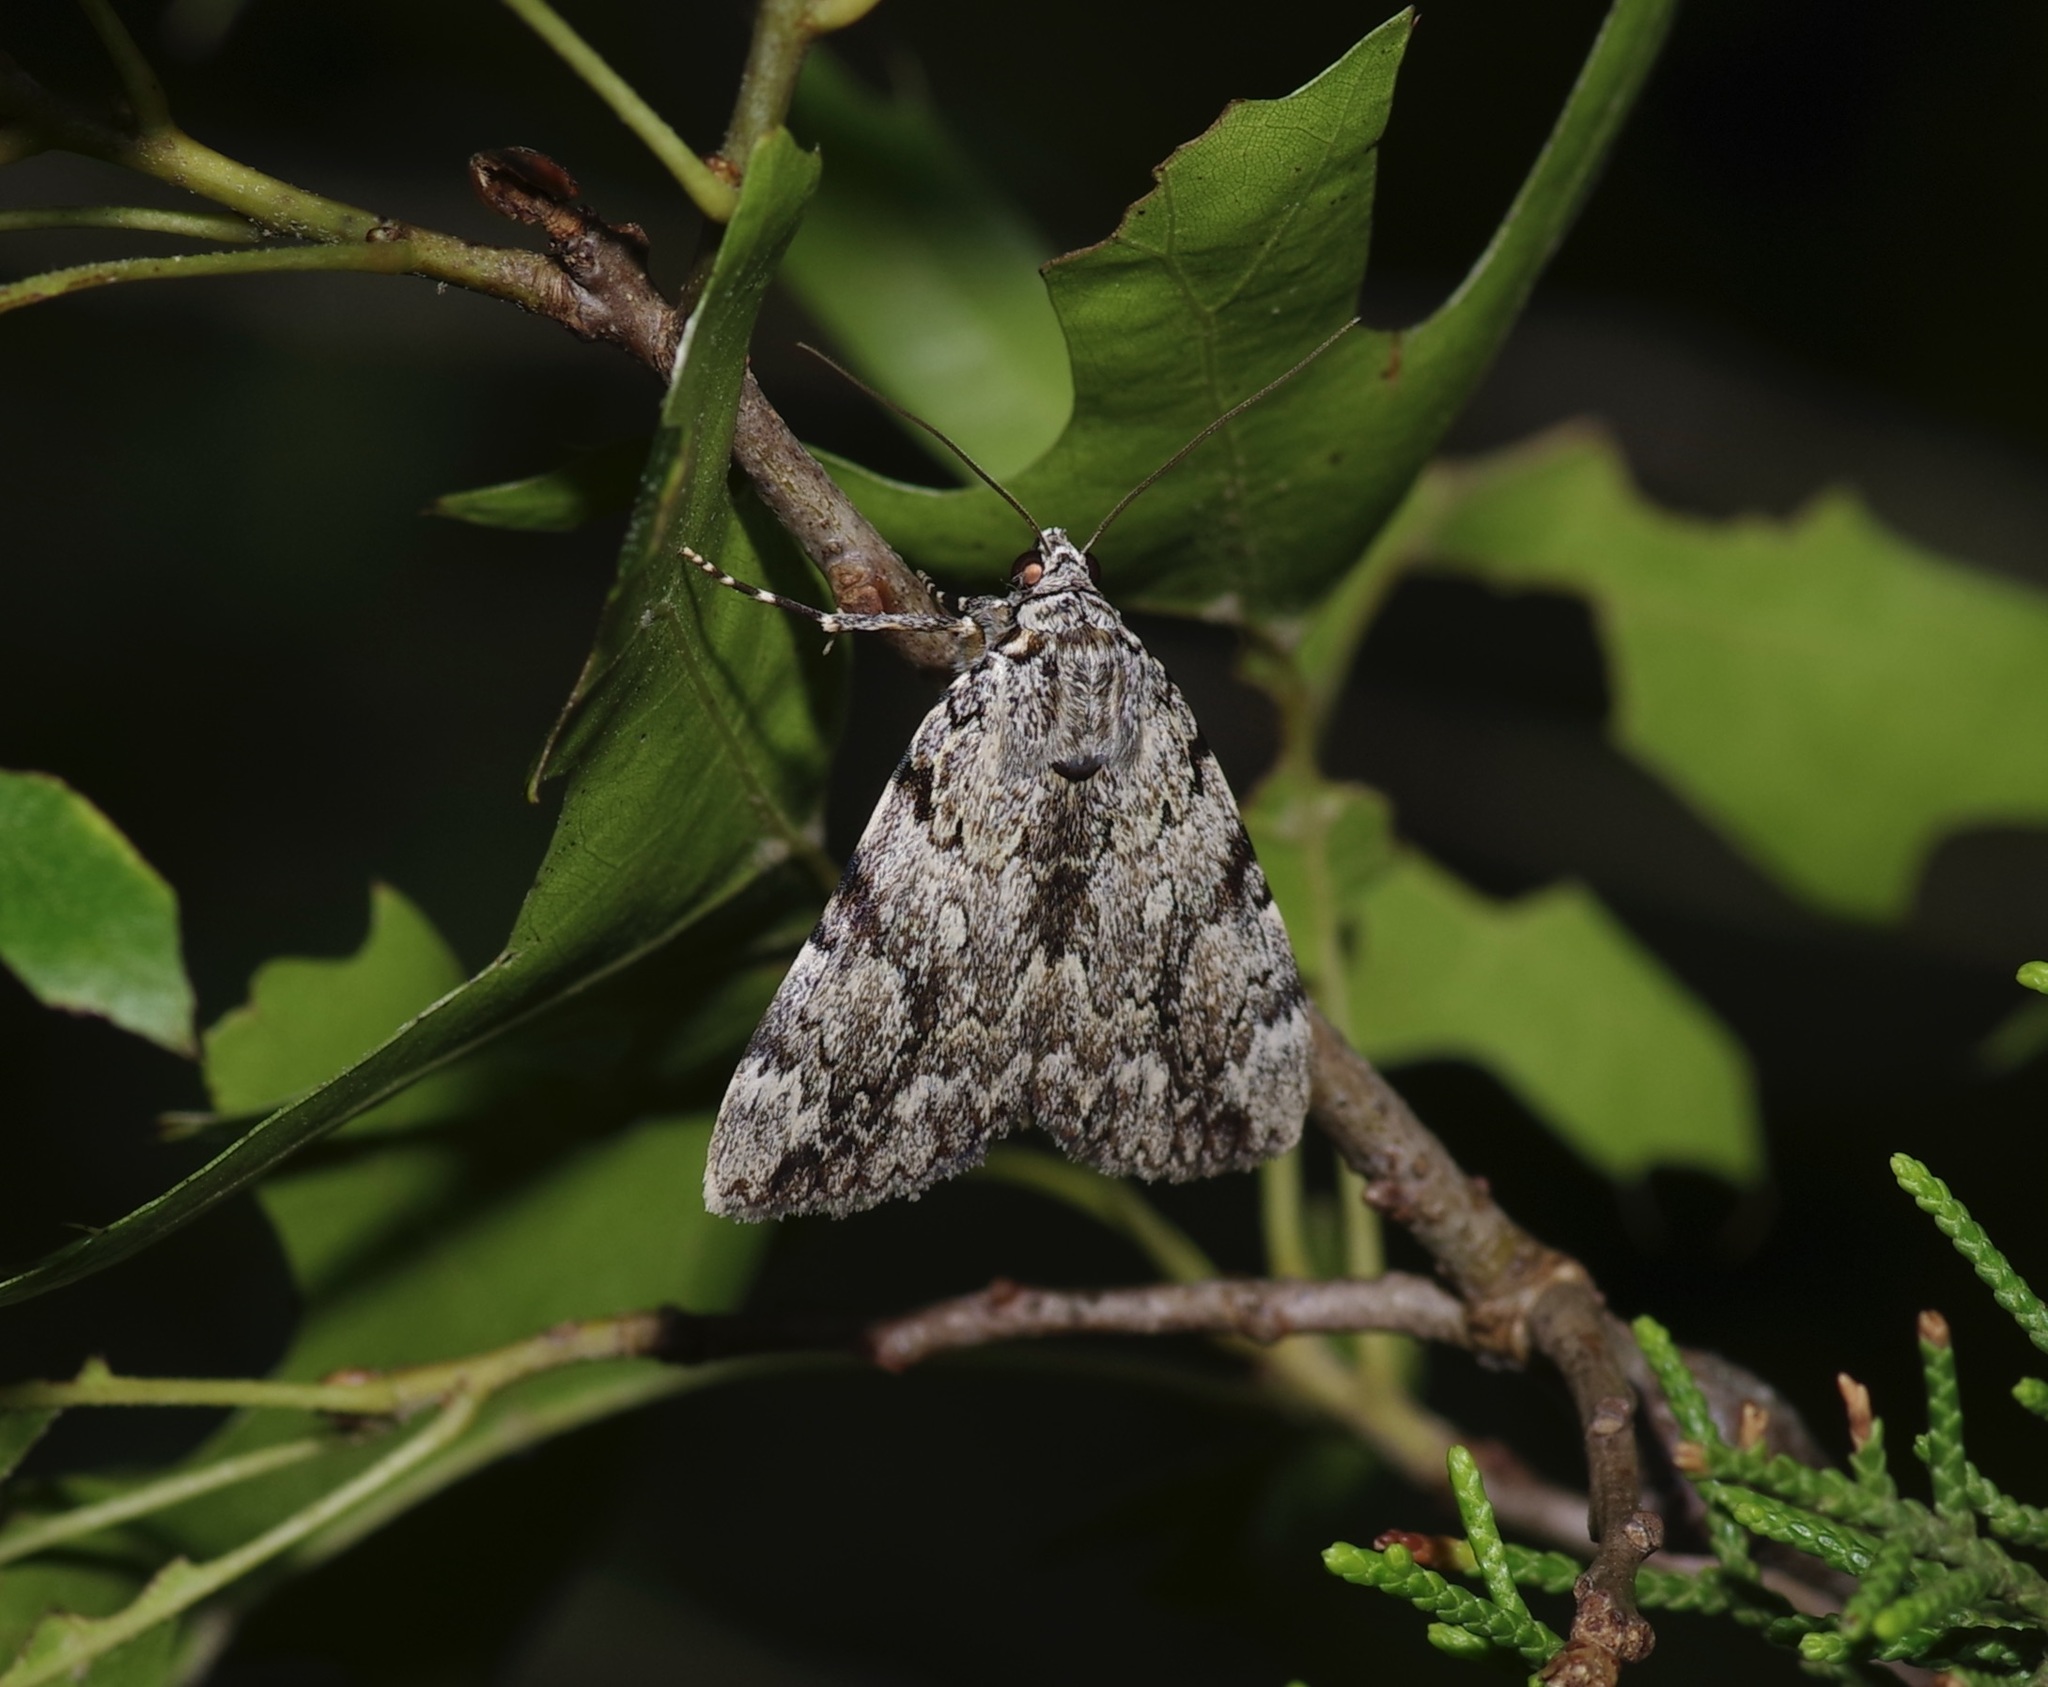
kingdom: Animalia
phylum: Arthropoda
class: Insecta
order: Lepidoptera
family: Erebidae
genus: Catocala
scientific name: Catocala amica
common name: Girlfriend underwing
